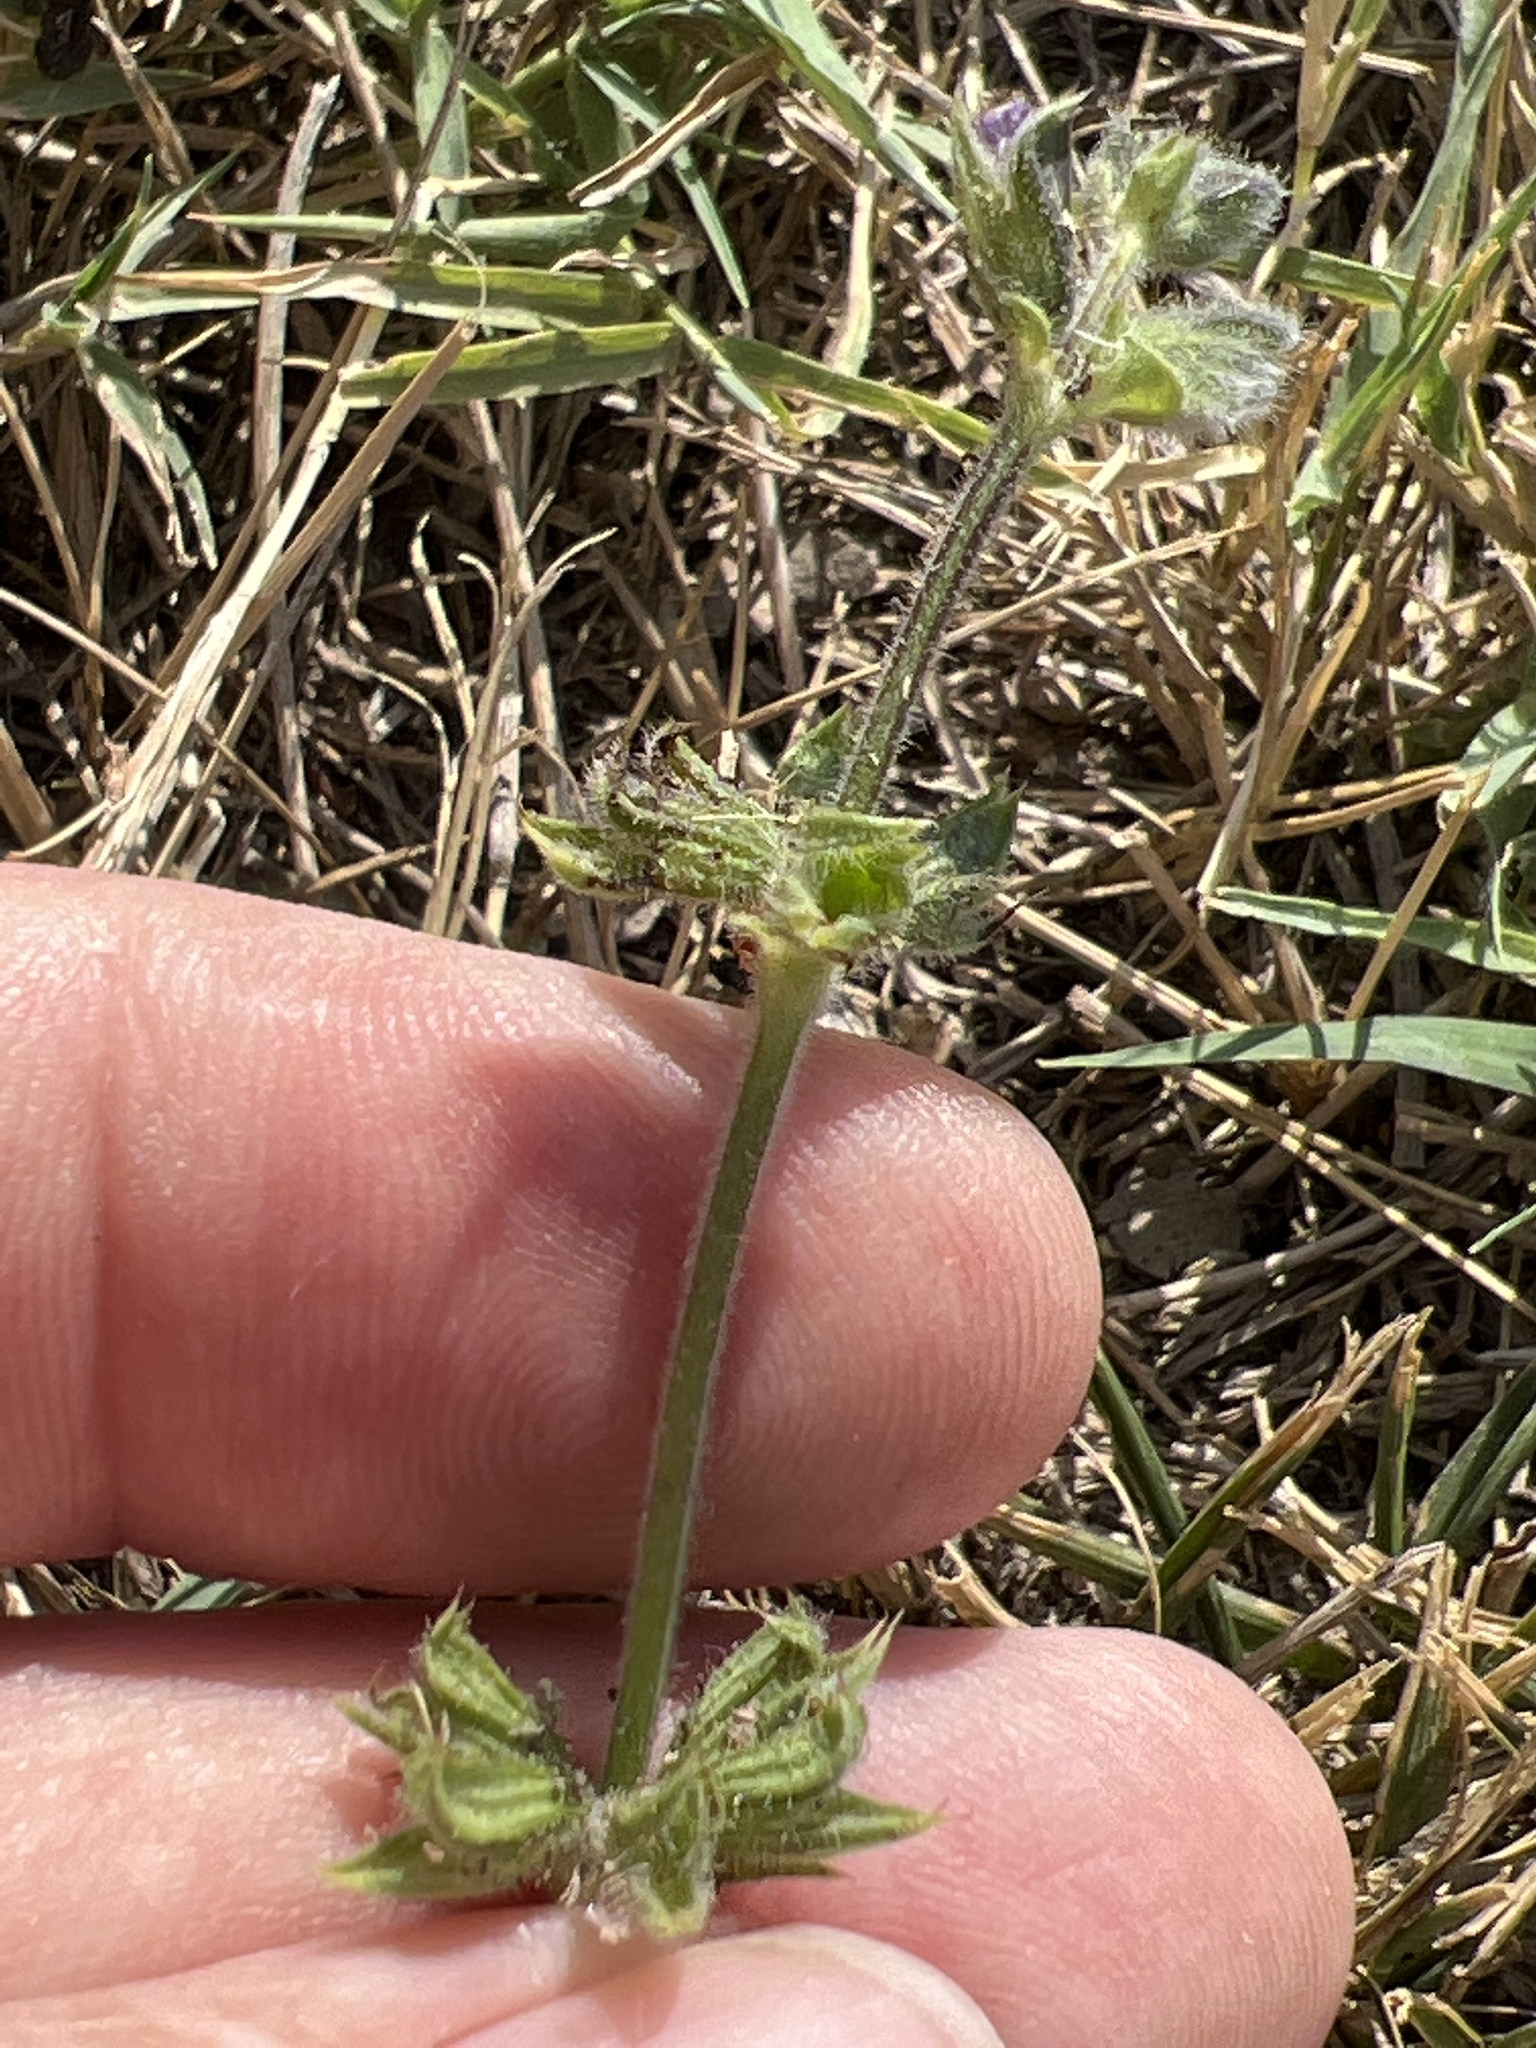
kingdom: Plantae
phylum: Tracheophyta
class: Magnoliopsida
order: Lamiales
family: Lamiaceae
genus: Salvia
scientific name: Salvia verbenaca
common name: Wild clary
